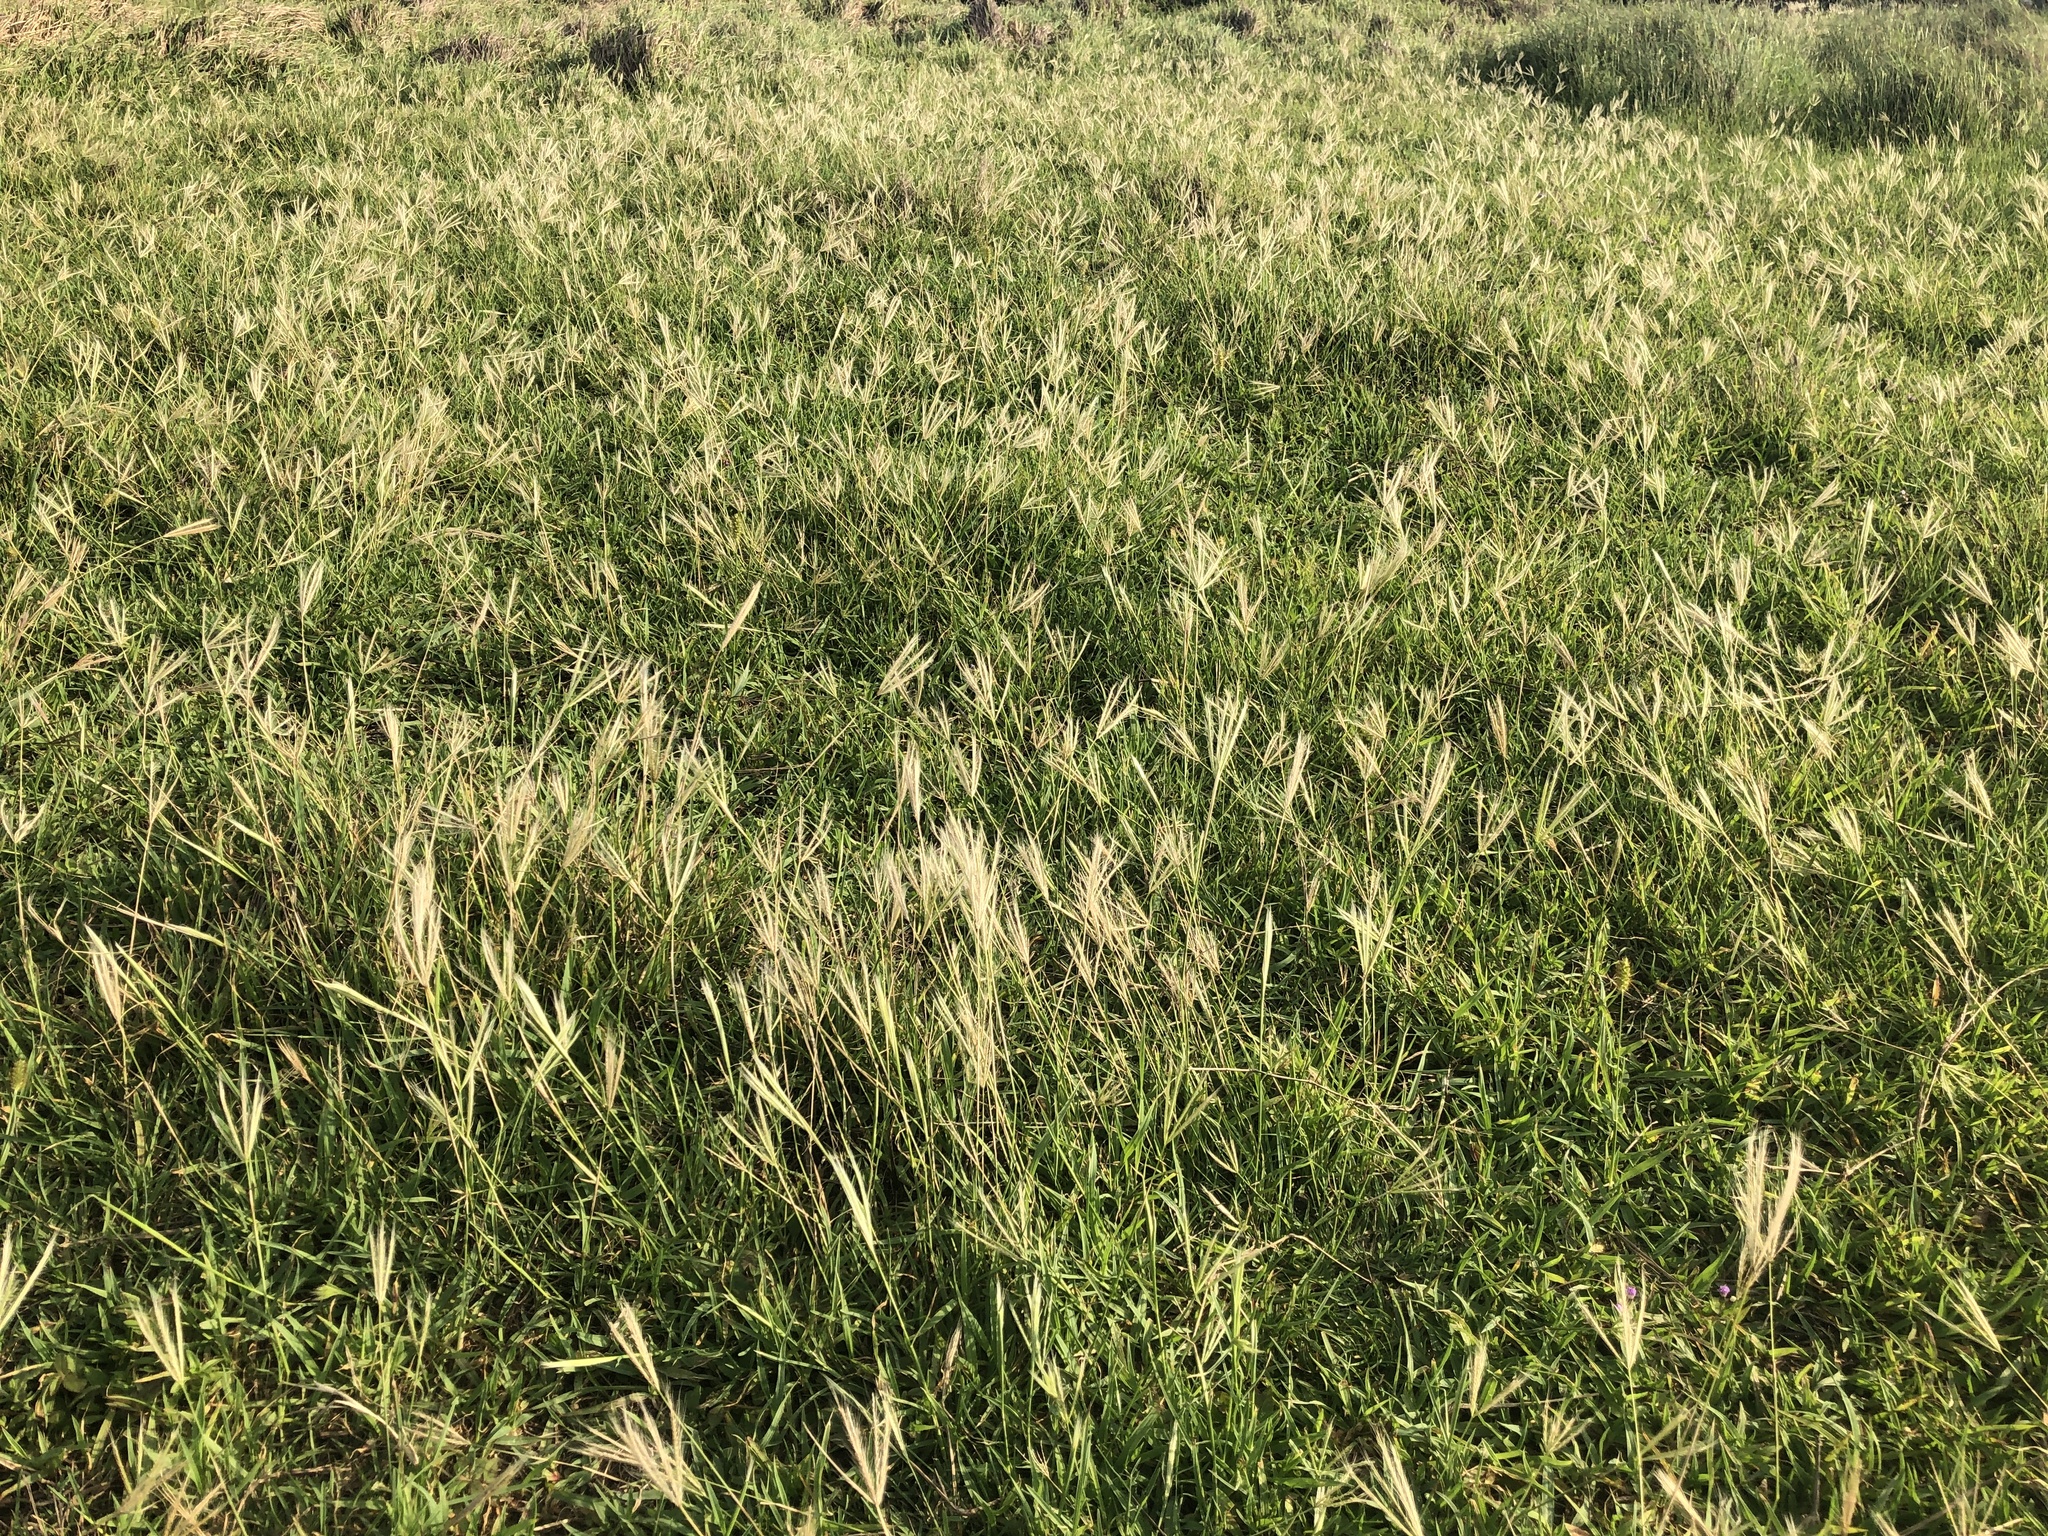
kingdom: Plantae
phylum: Tracheophyta
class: Liliopsida
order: Poales
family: Poaceae
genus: Chloris
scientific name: Chloris divaricata
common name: Spreading windmill grass
